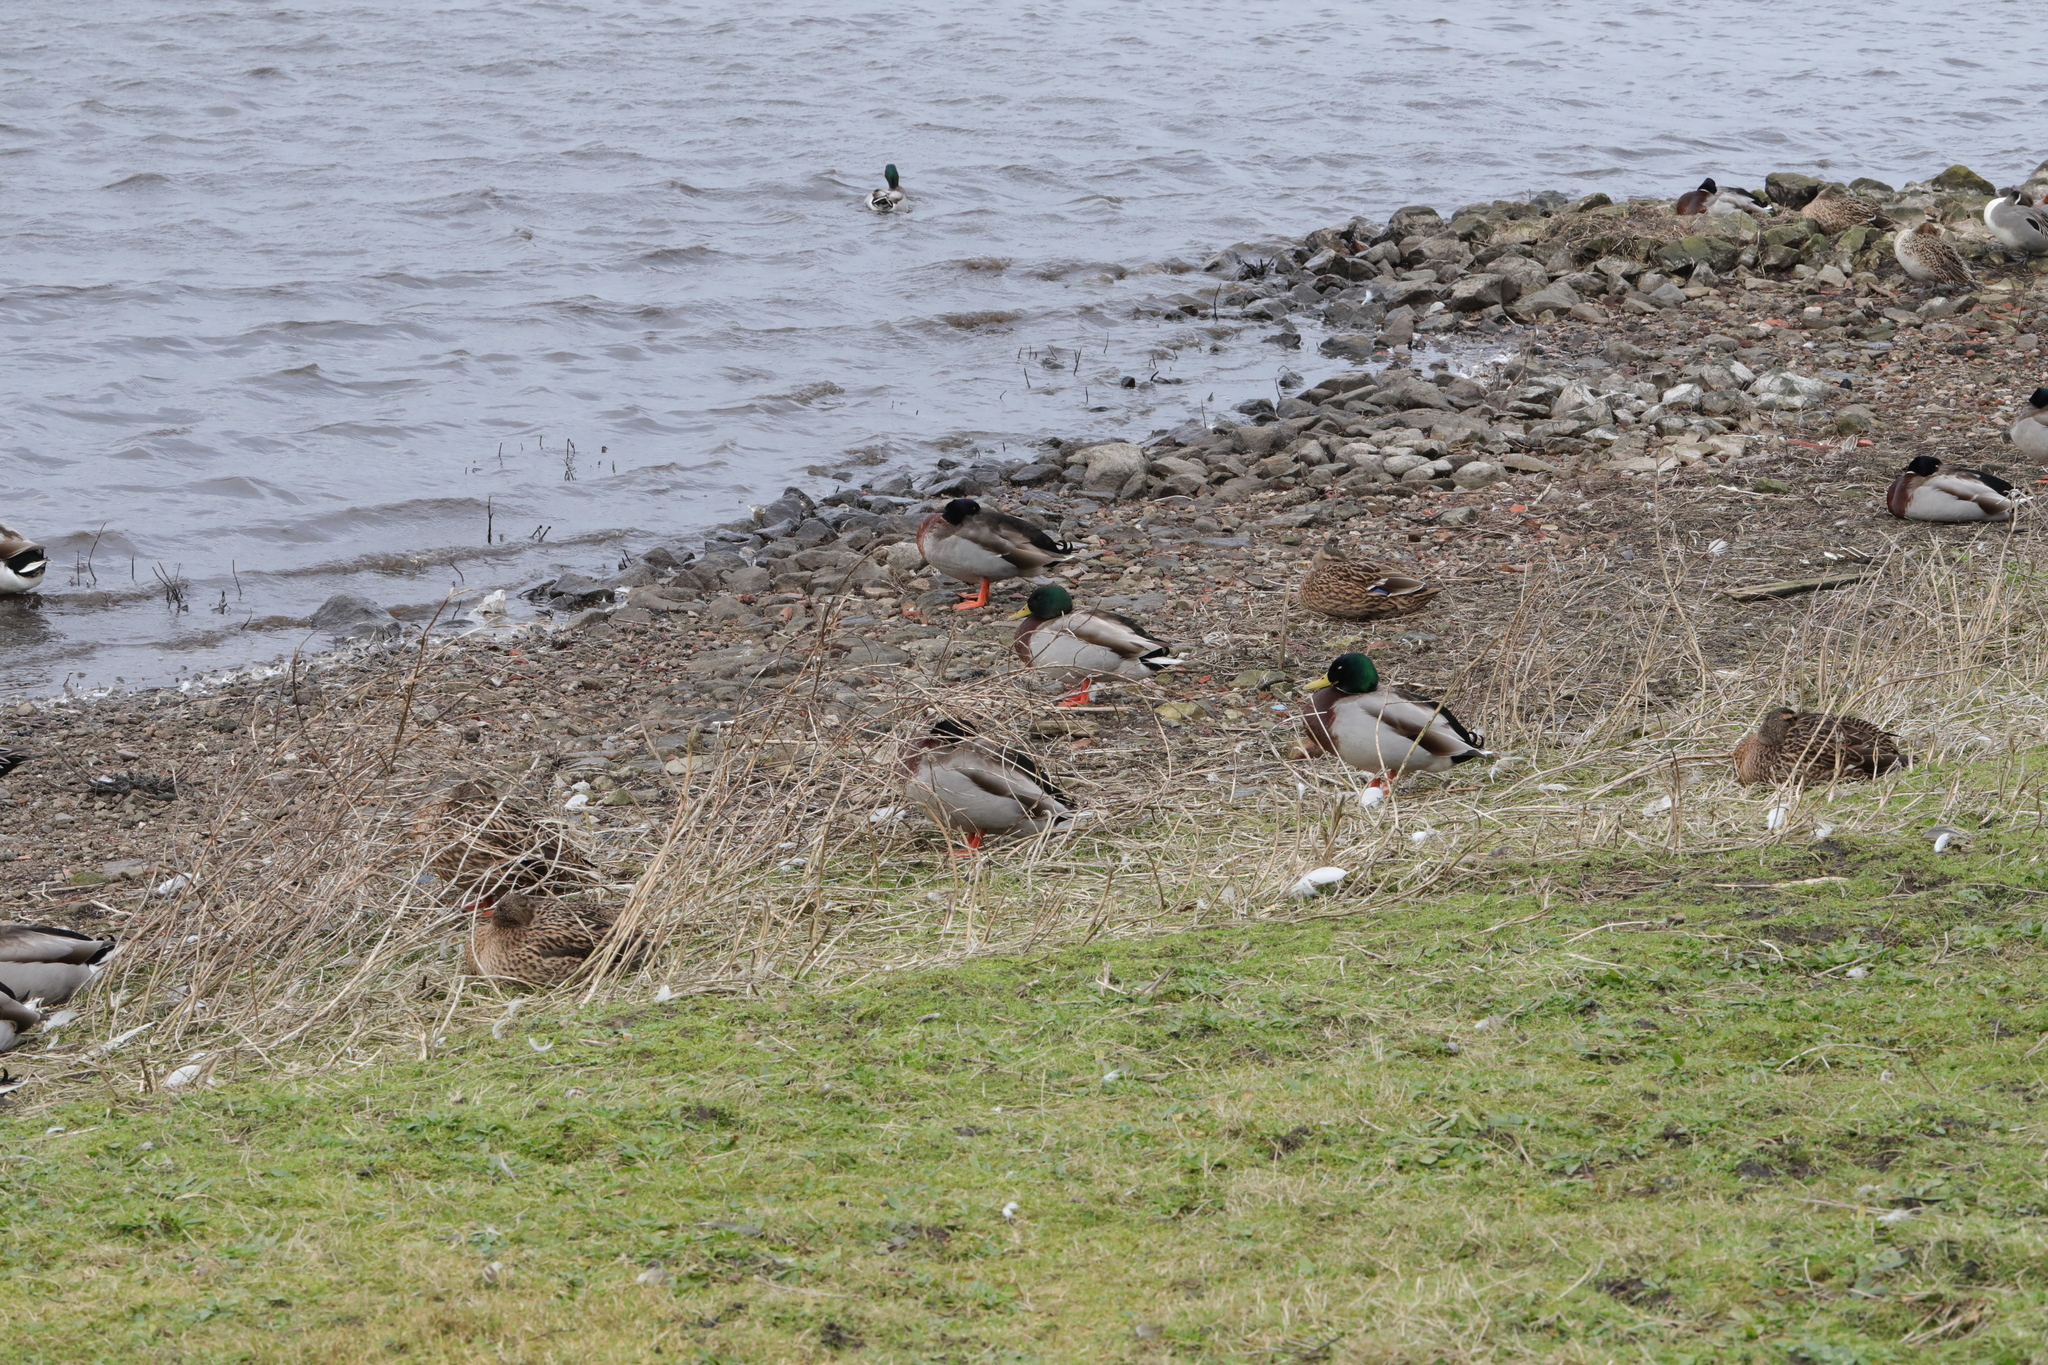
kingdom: Animalia
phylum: Chordata
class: Aves
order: Anseriformes
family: Anatidae
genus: Anas
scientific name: Anas platyrhynchos
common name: Mallard
